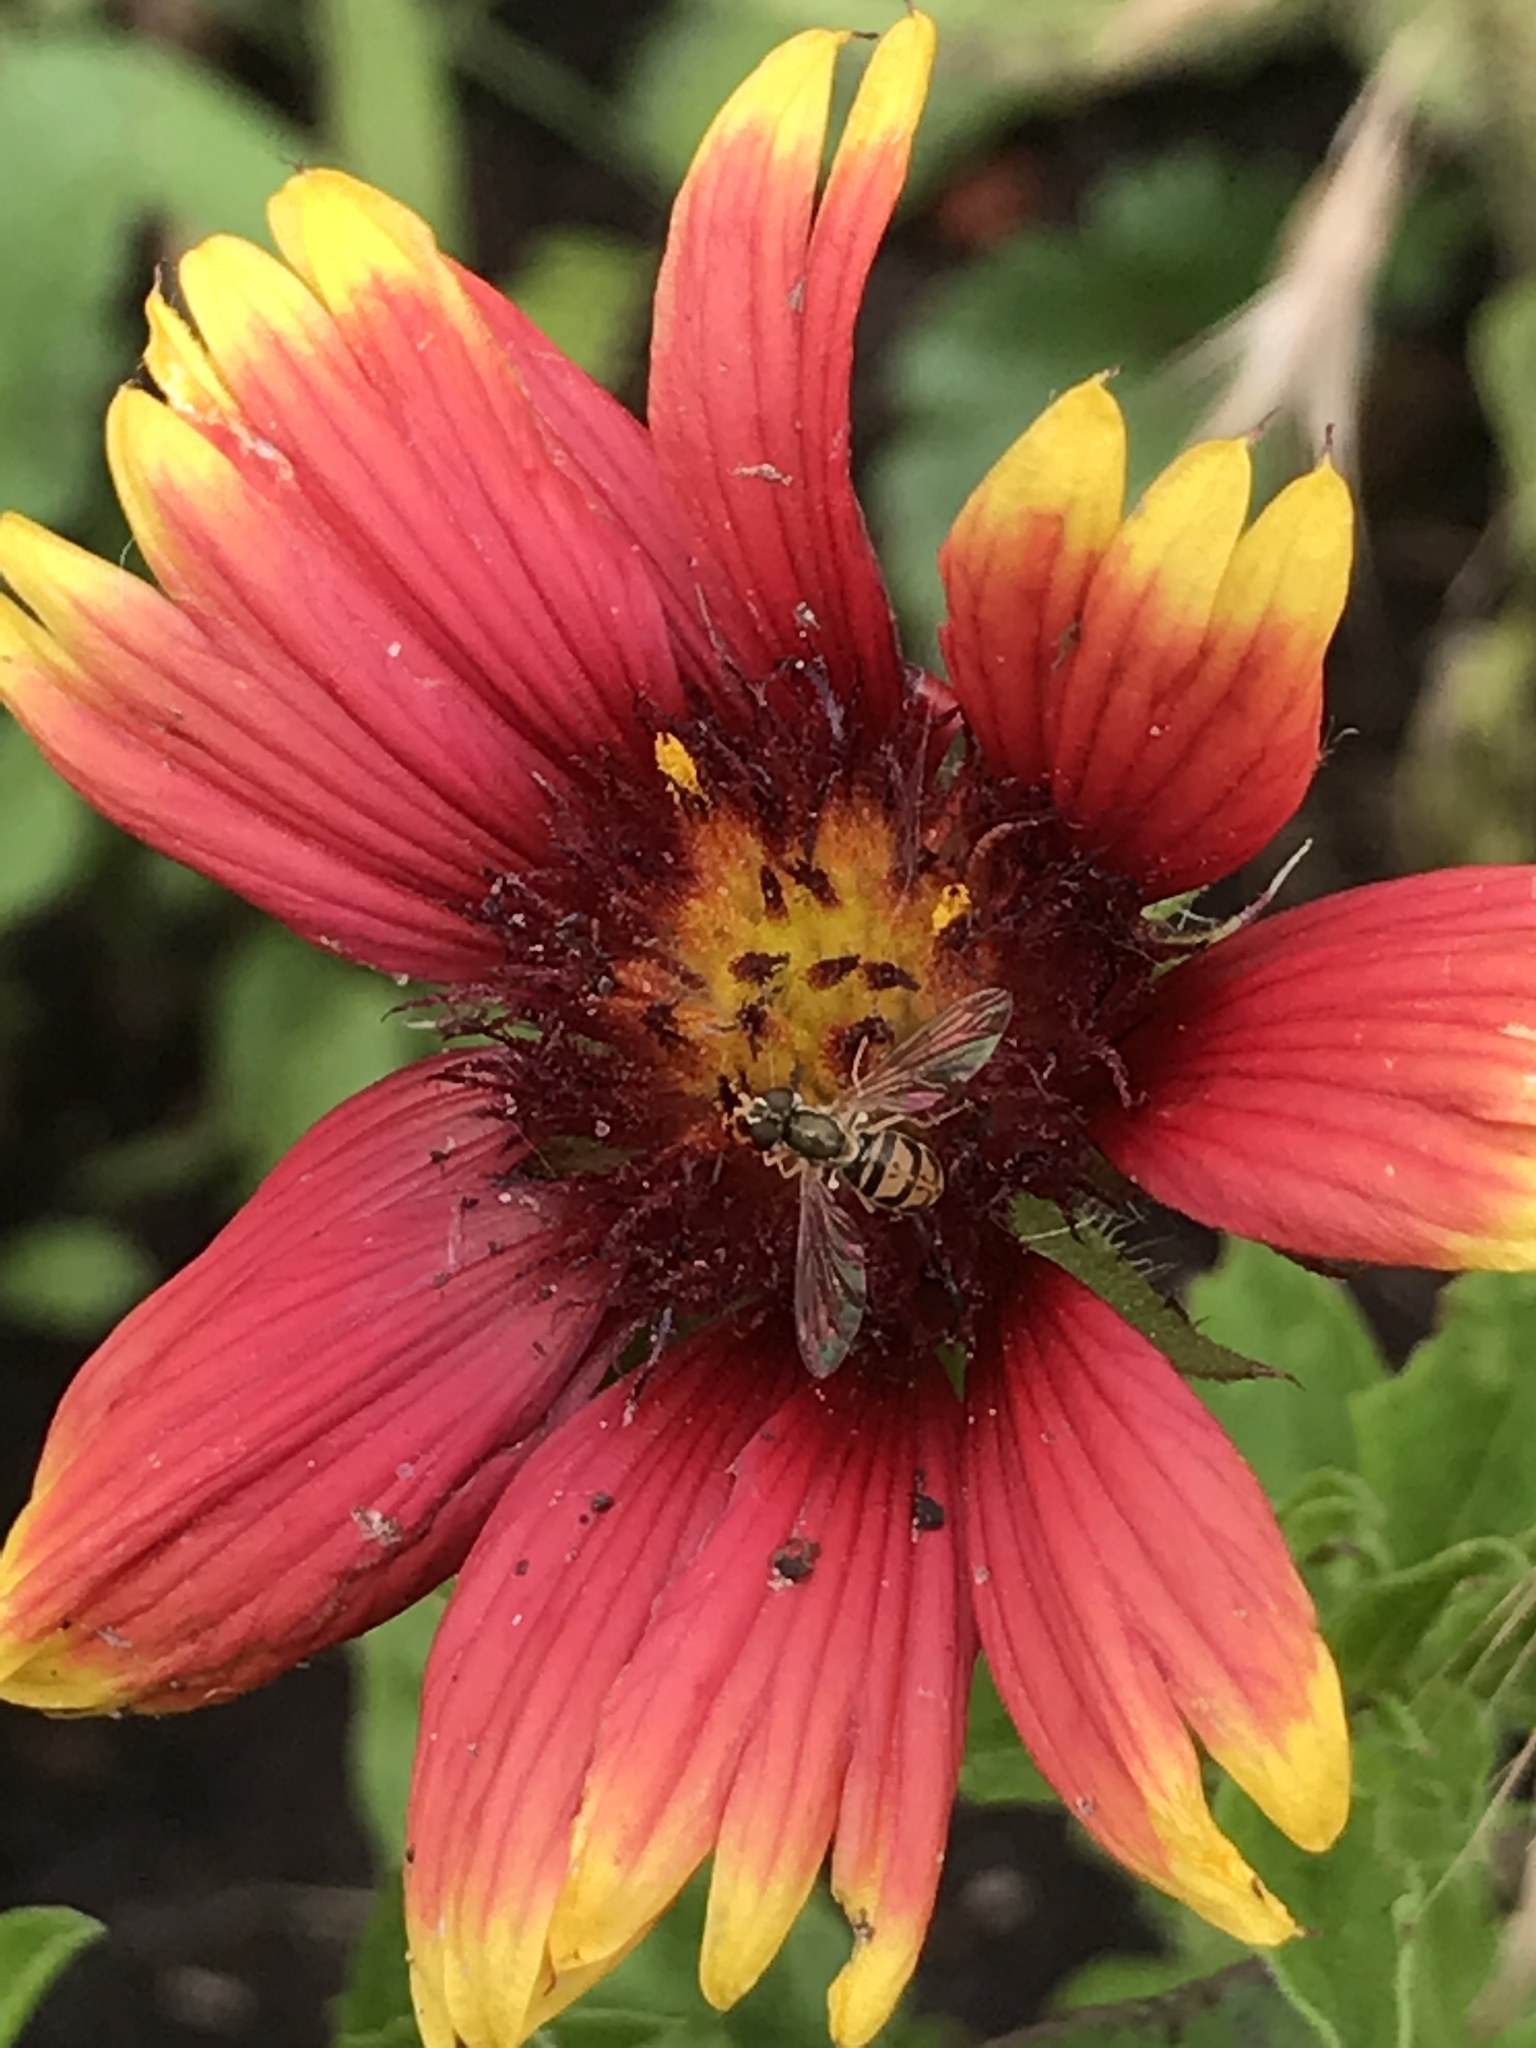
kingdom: Animalia
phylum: Arthropoda
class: Insecta
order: Diptera
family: Syrphidae
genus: Toxomerus
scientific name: Toxomerus marginatus
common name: Syrphid fly
